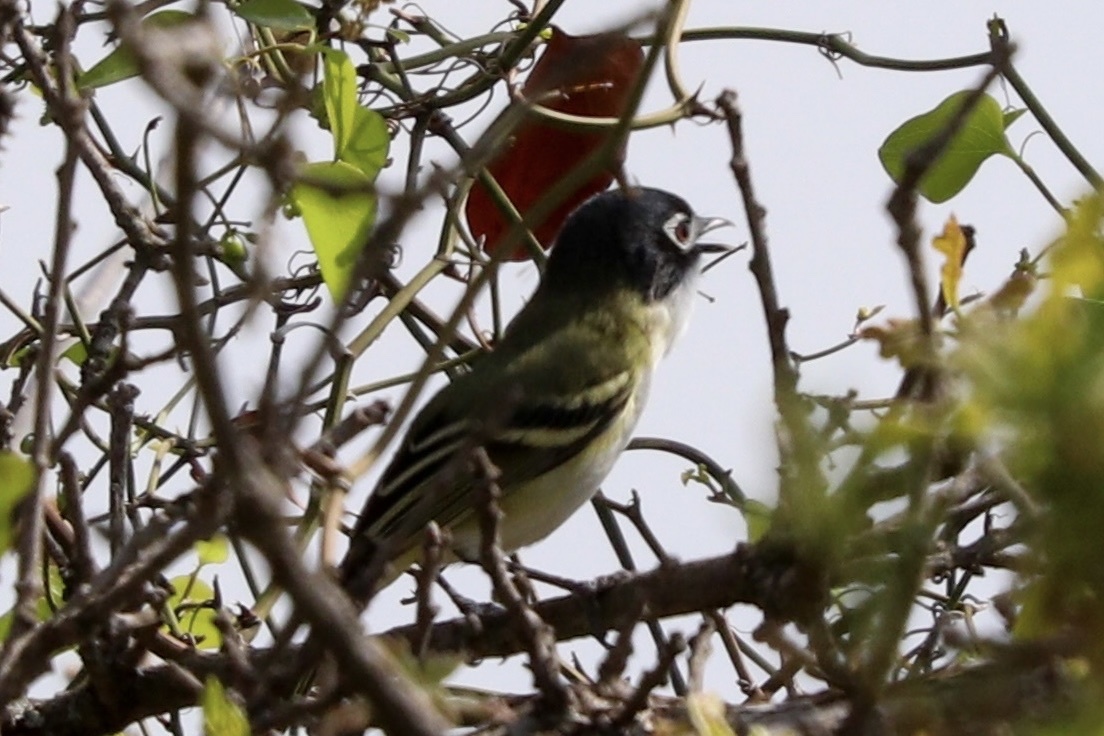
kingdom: Animalia
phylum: Chordata
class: Aves
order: Passeriformes
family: Vireonidae
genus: Vireo
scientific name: Vireo atricapilla
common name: Black-capped vireo
